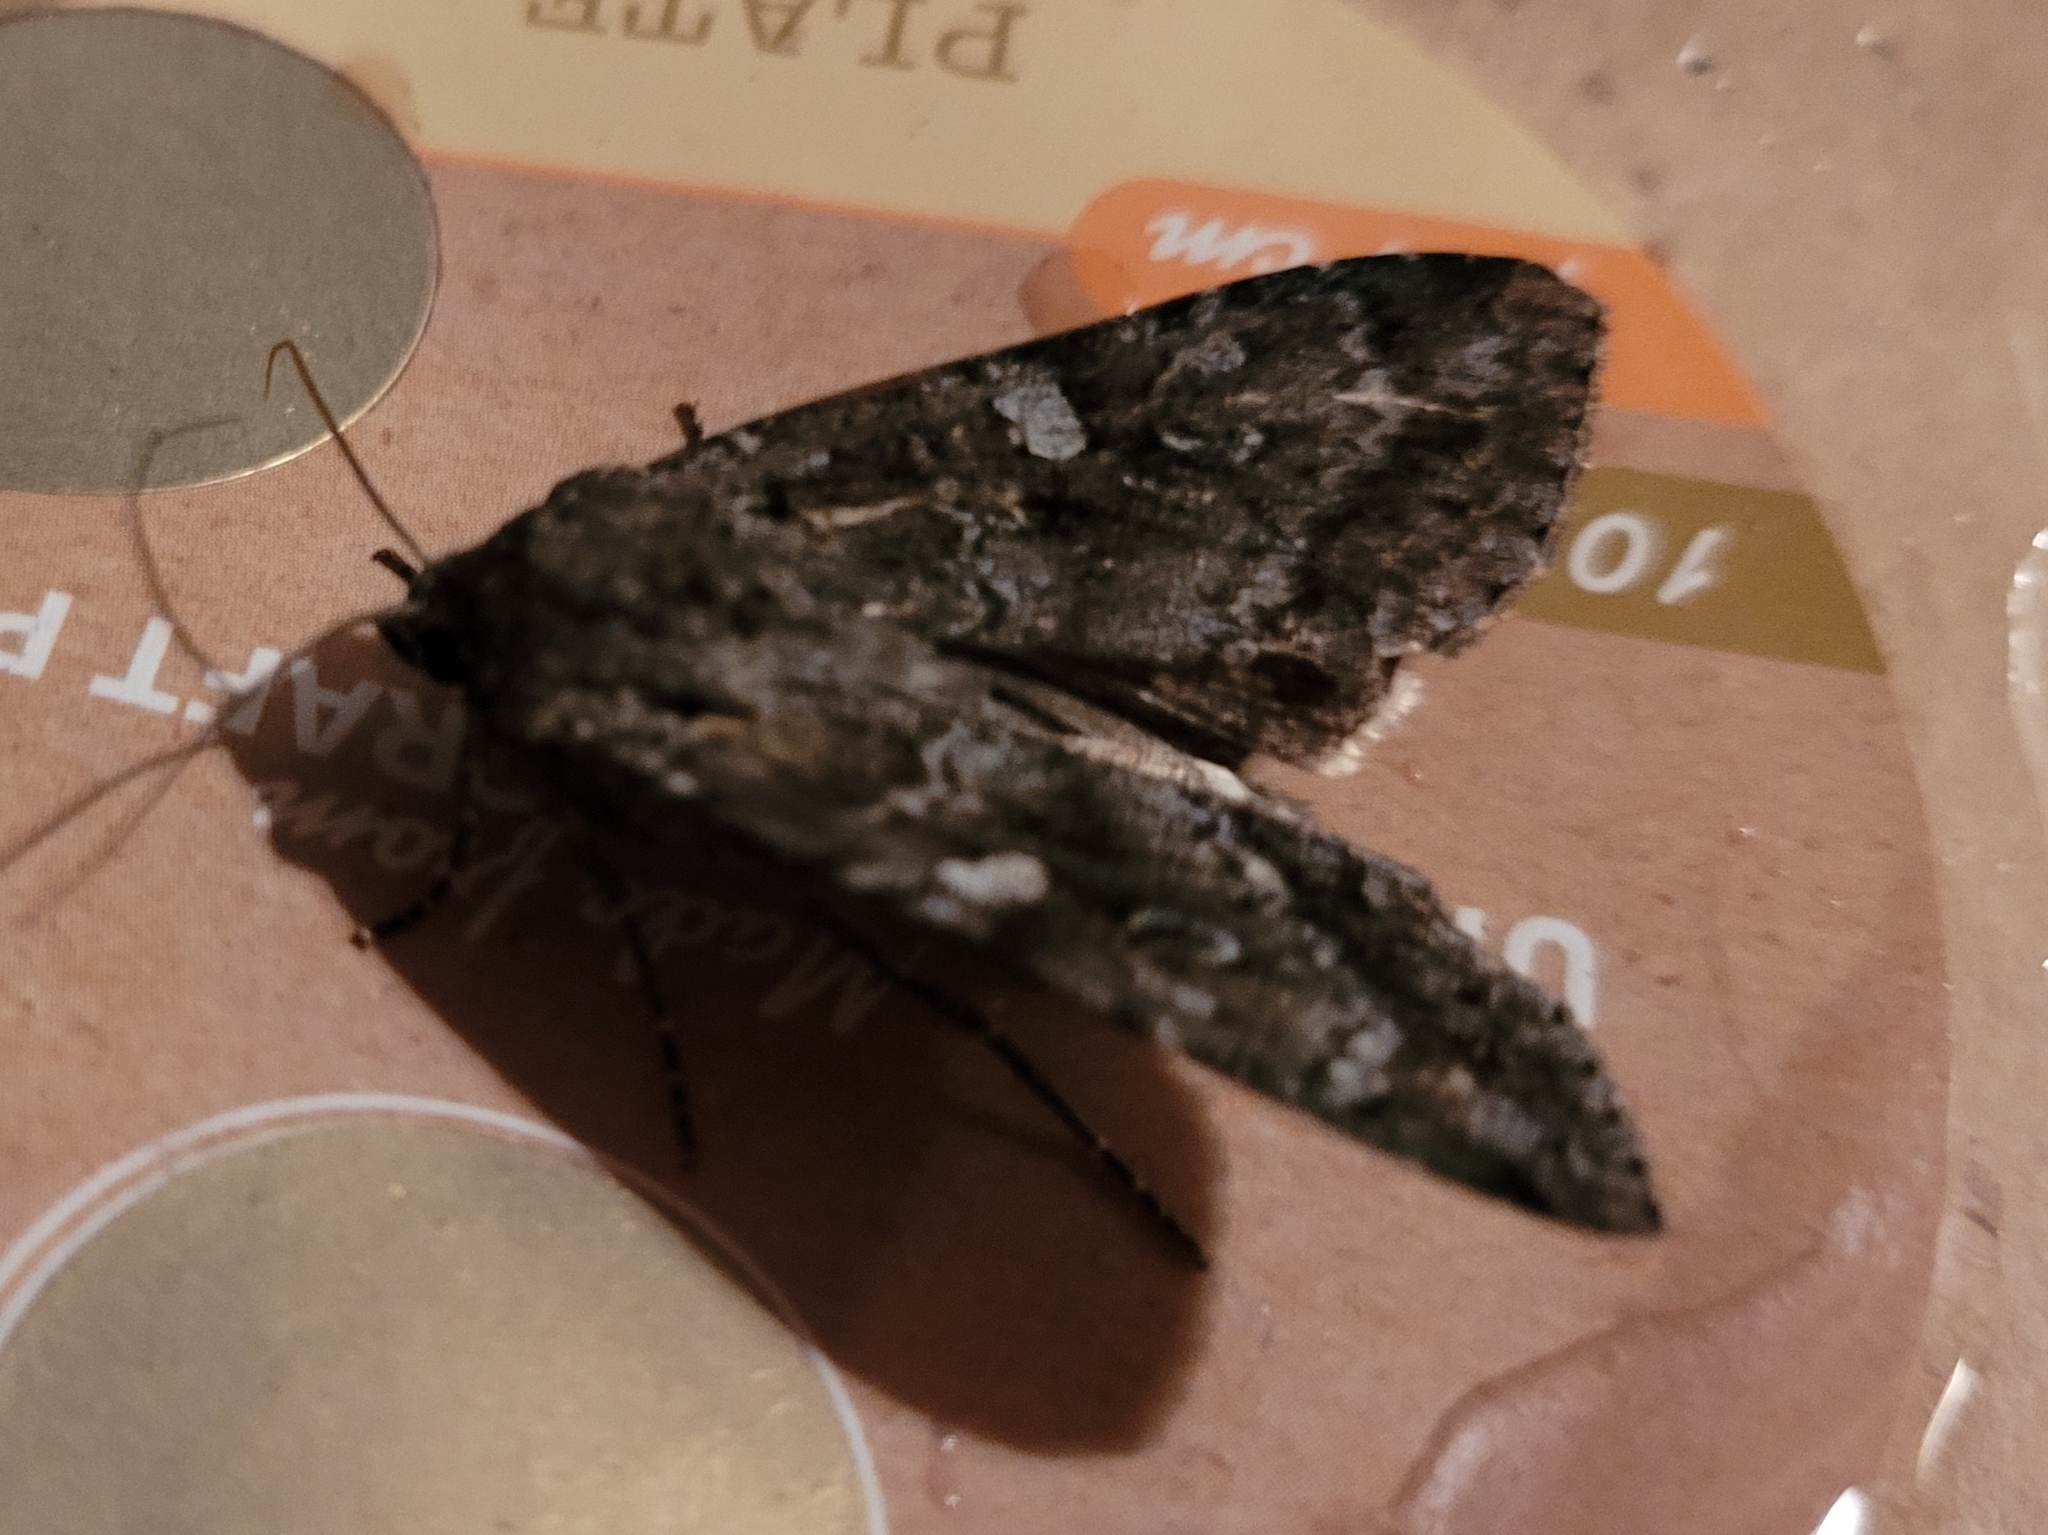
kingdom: Animalia
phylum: Arthropoda
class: Insecta
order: Lepidoptera
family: Noctuidae
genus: Eurois
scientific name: Eurois occulta
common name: Great brocade
